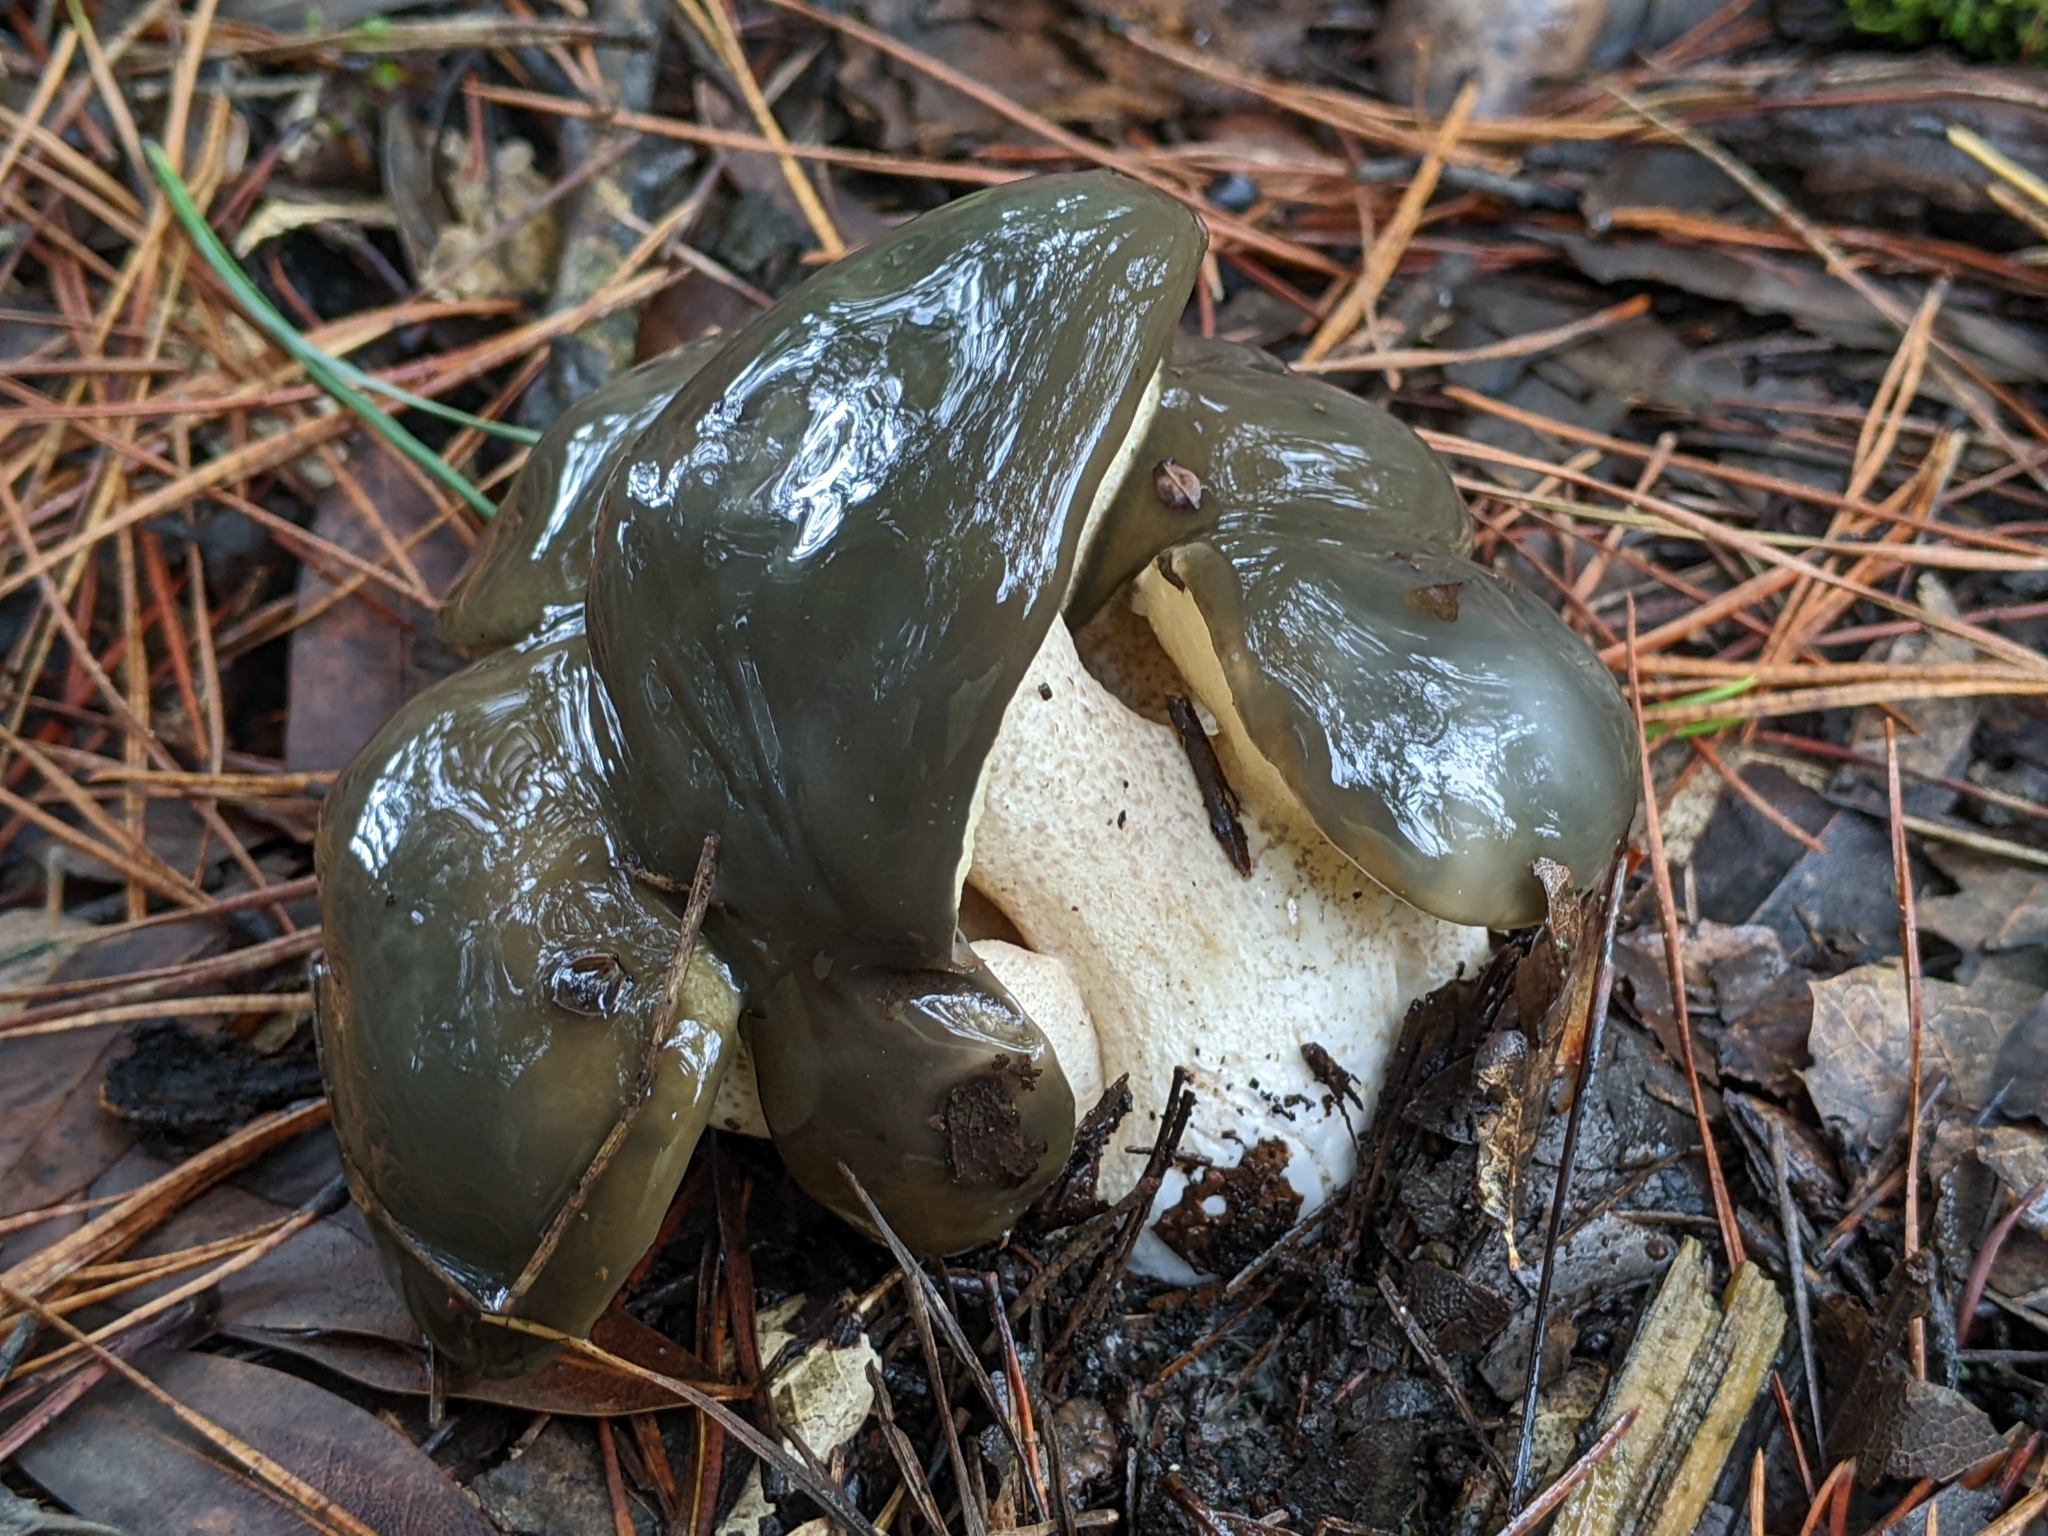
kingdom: Fungi
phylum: Basidiomycota
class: Agaricomycetes
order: Boletales
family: Suillaceae
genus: Suillus
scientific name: Suillus pungens
